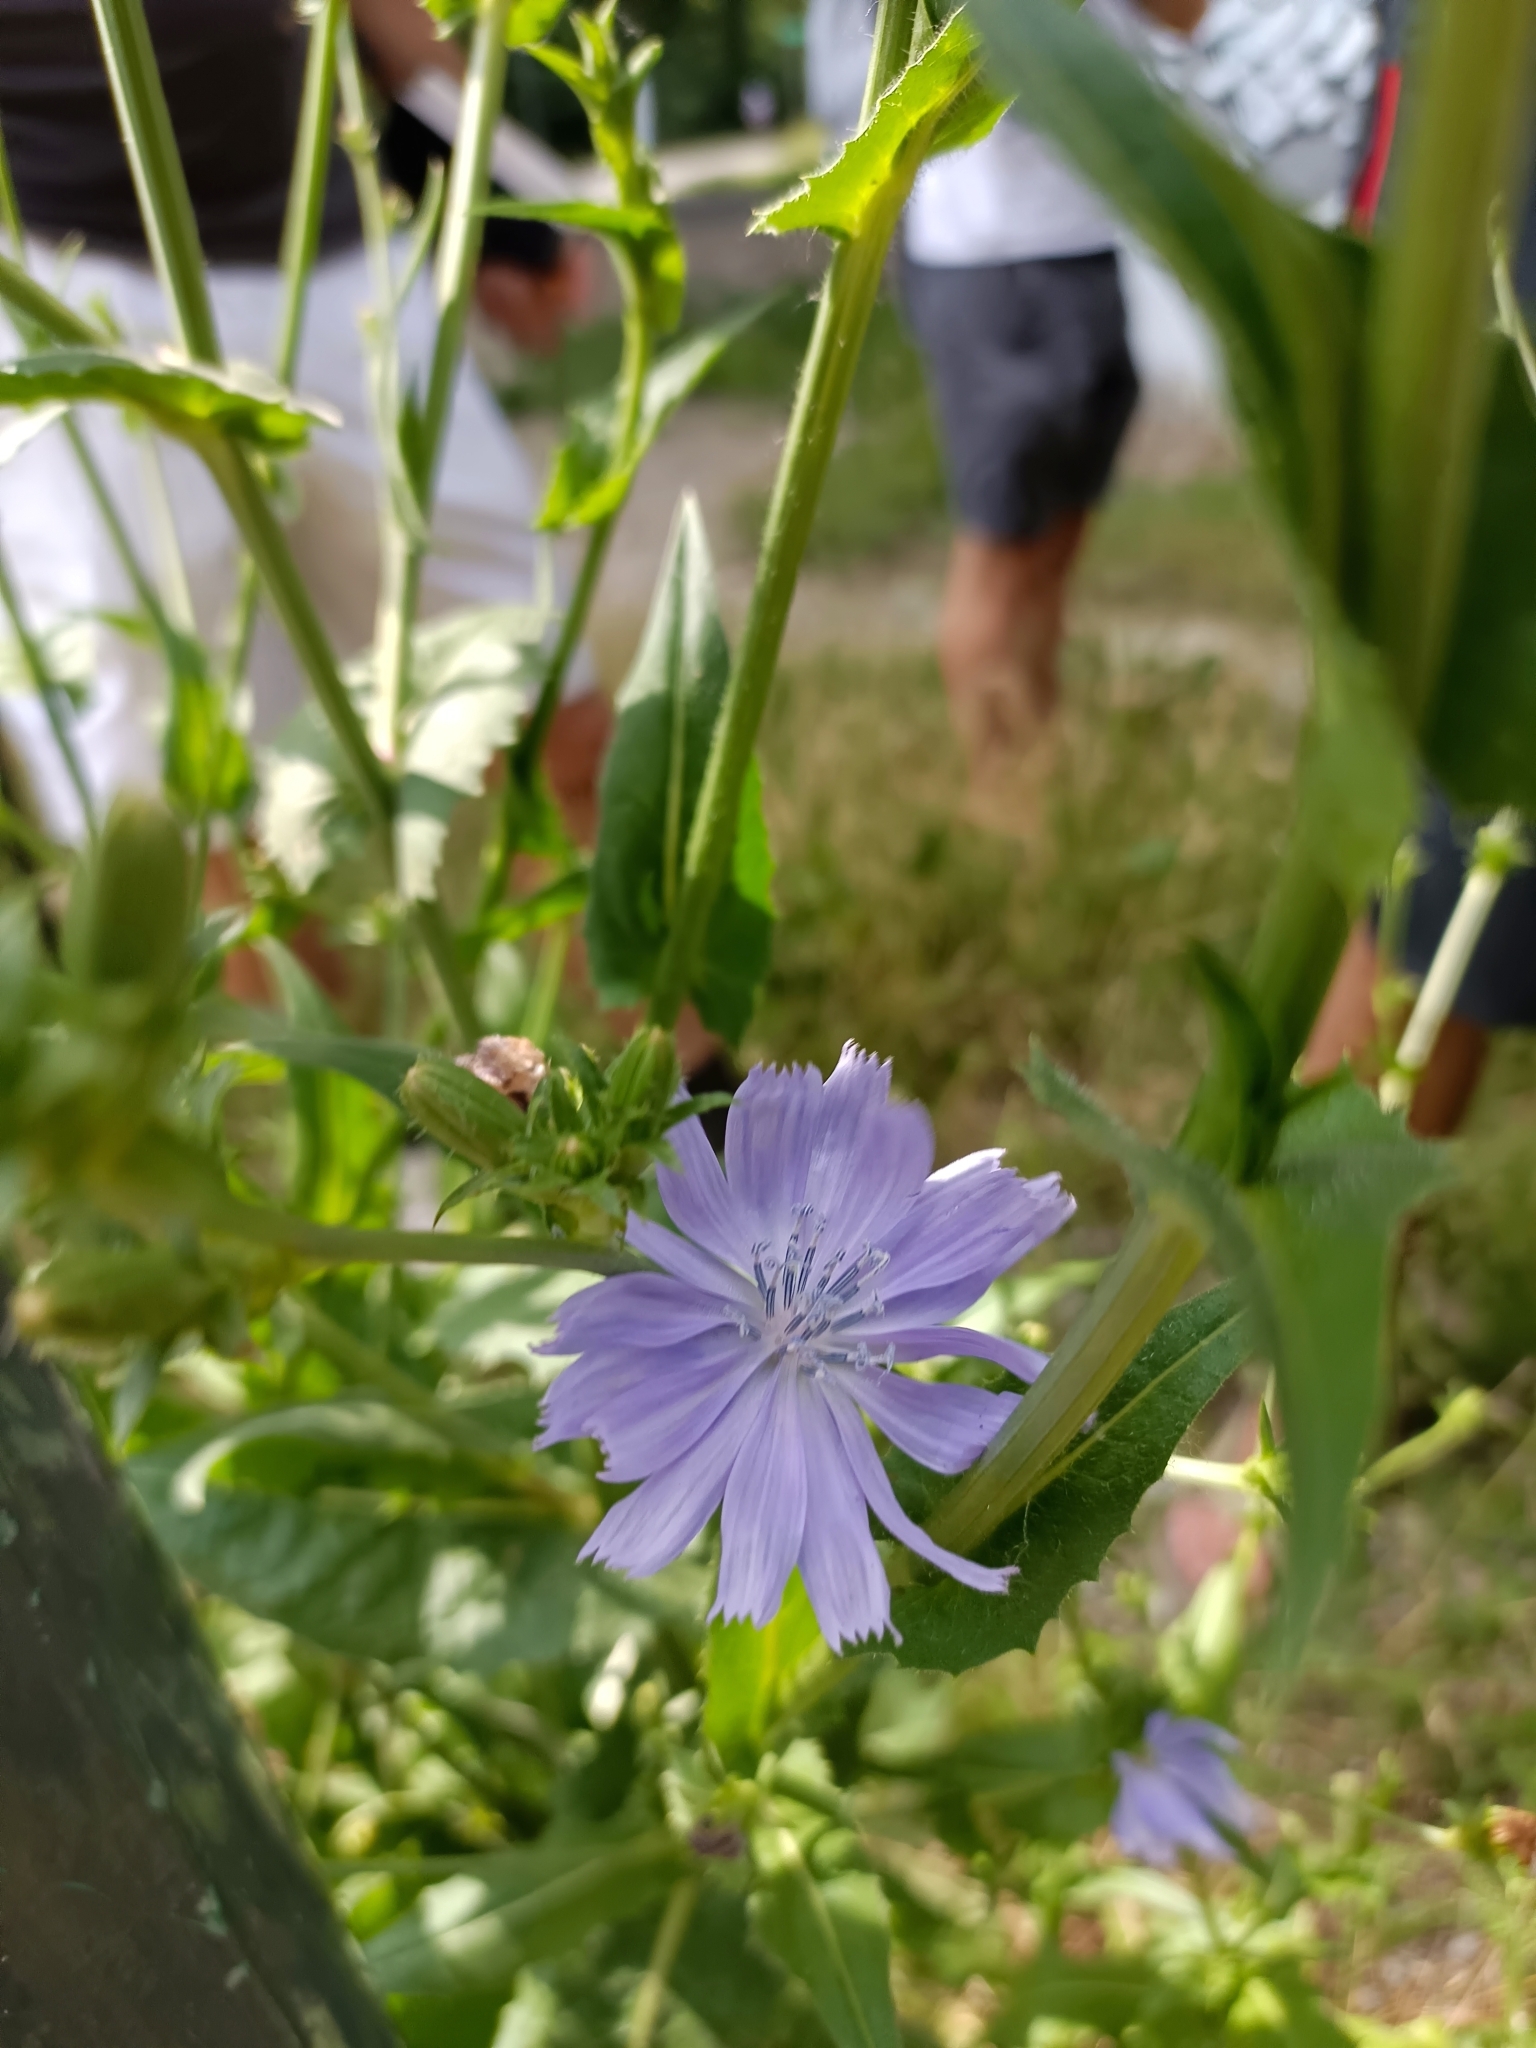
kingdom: Plantae
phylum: Tracheophyta
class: Magnoliopsida
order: Asterales
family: Asteraceae
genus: Cichorium
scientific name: Cichorium intybus
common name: Chicory
